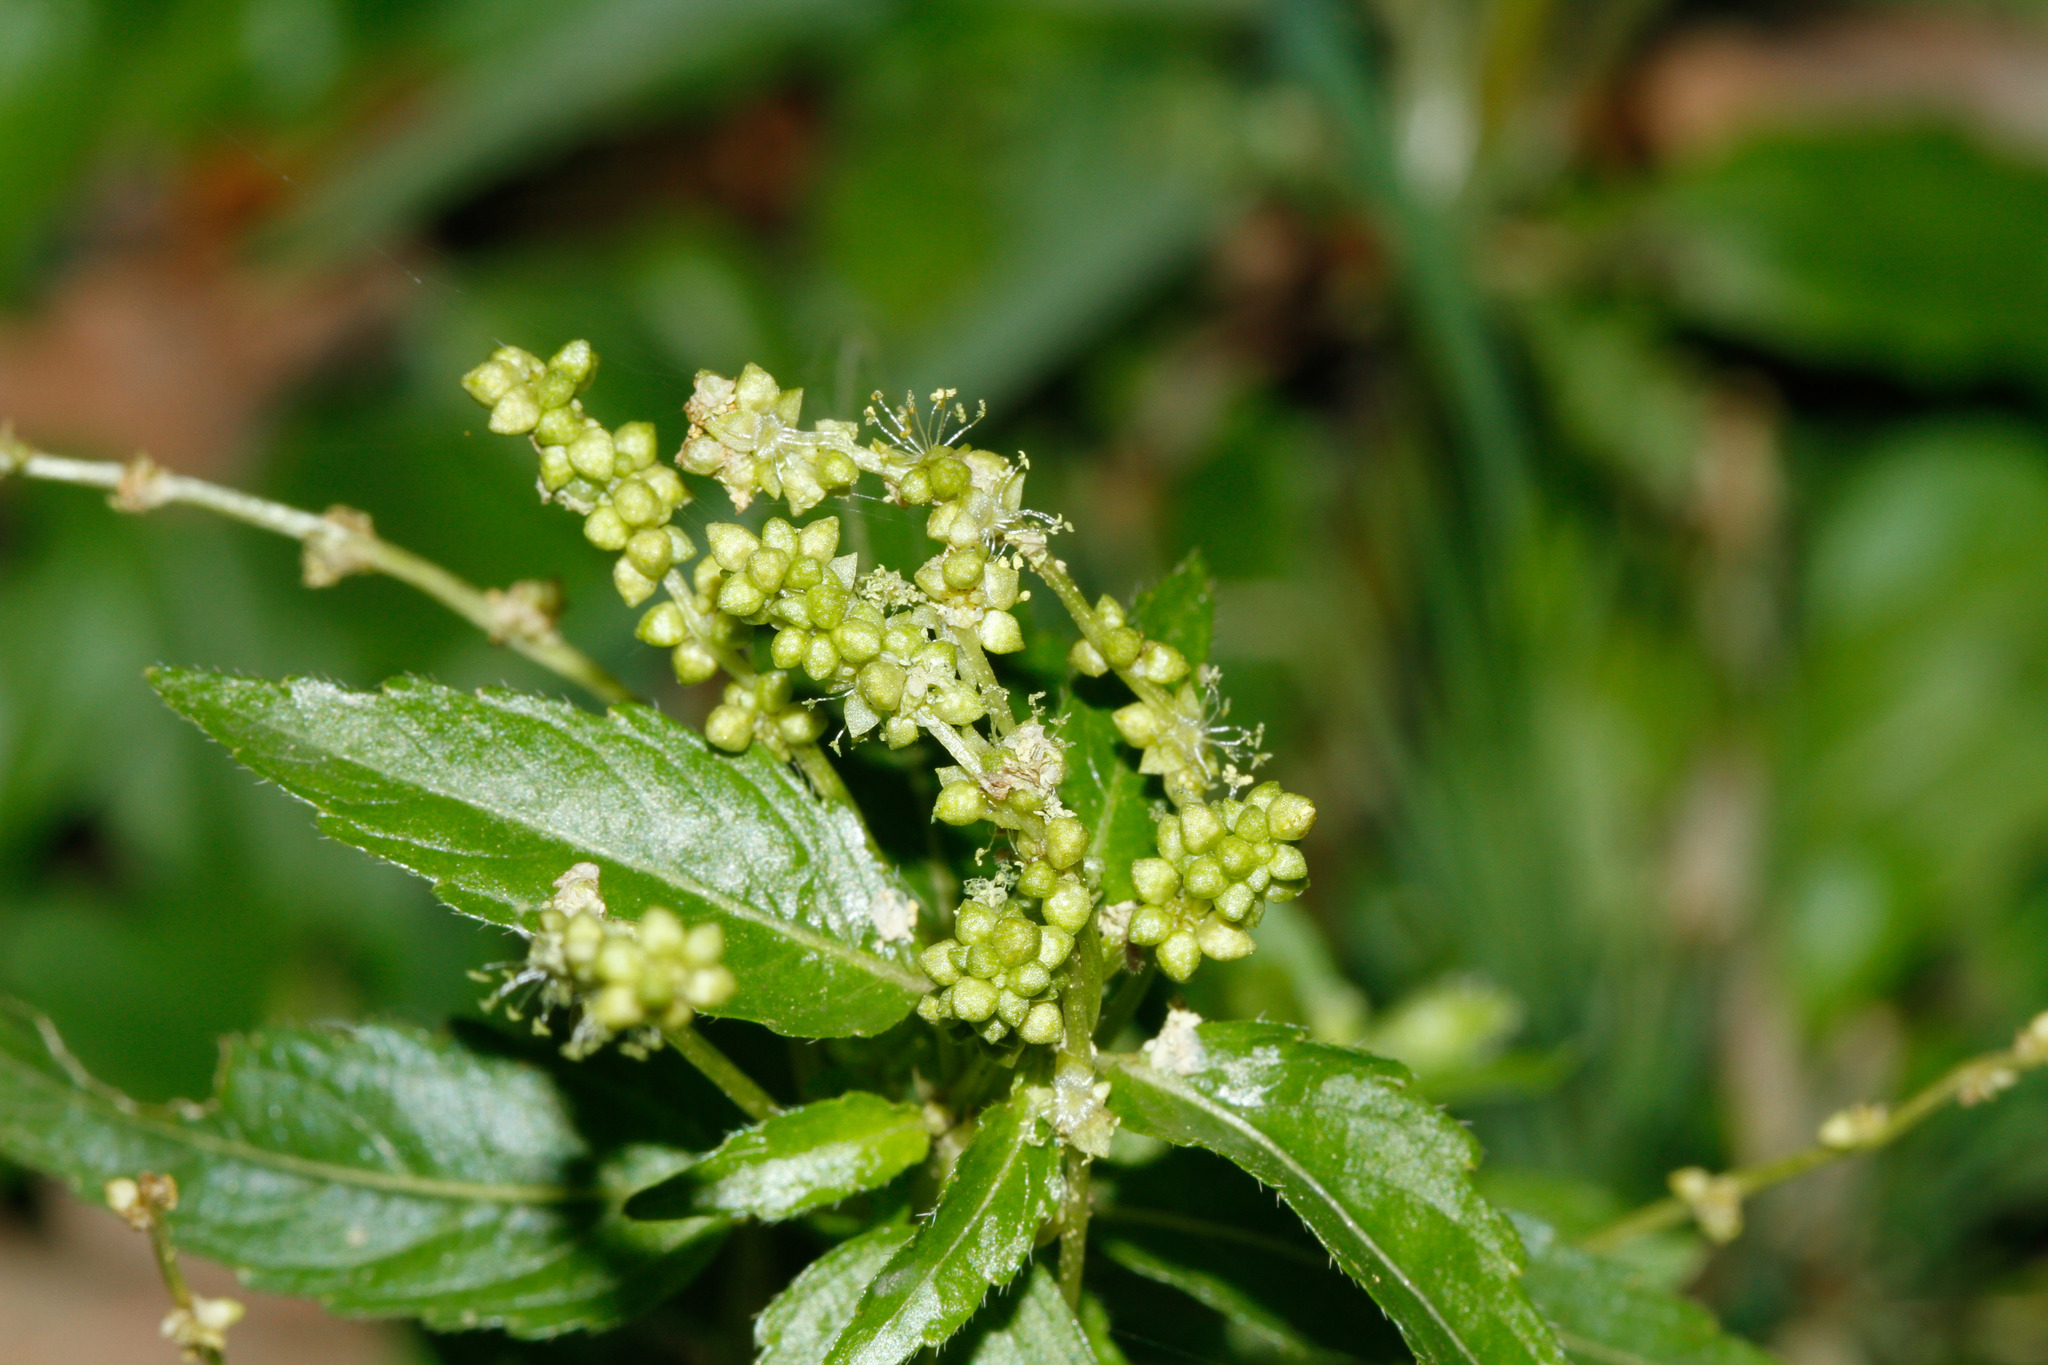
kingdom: Plantae
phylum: Tracheophyta
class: Magnoliopsida
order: Malpighiales
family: Euphorbiaceae
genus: Mercurialis
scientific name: Mercurialis annua
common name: Annual mercury
